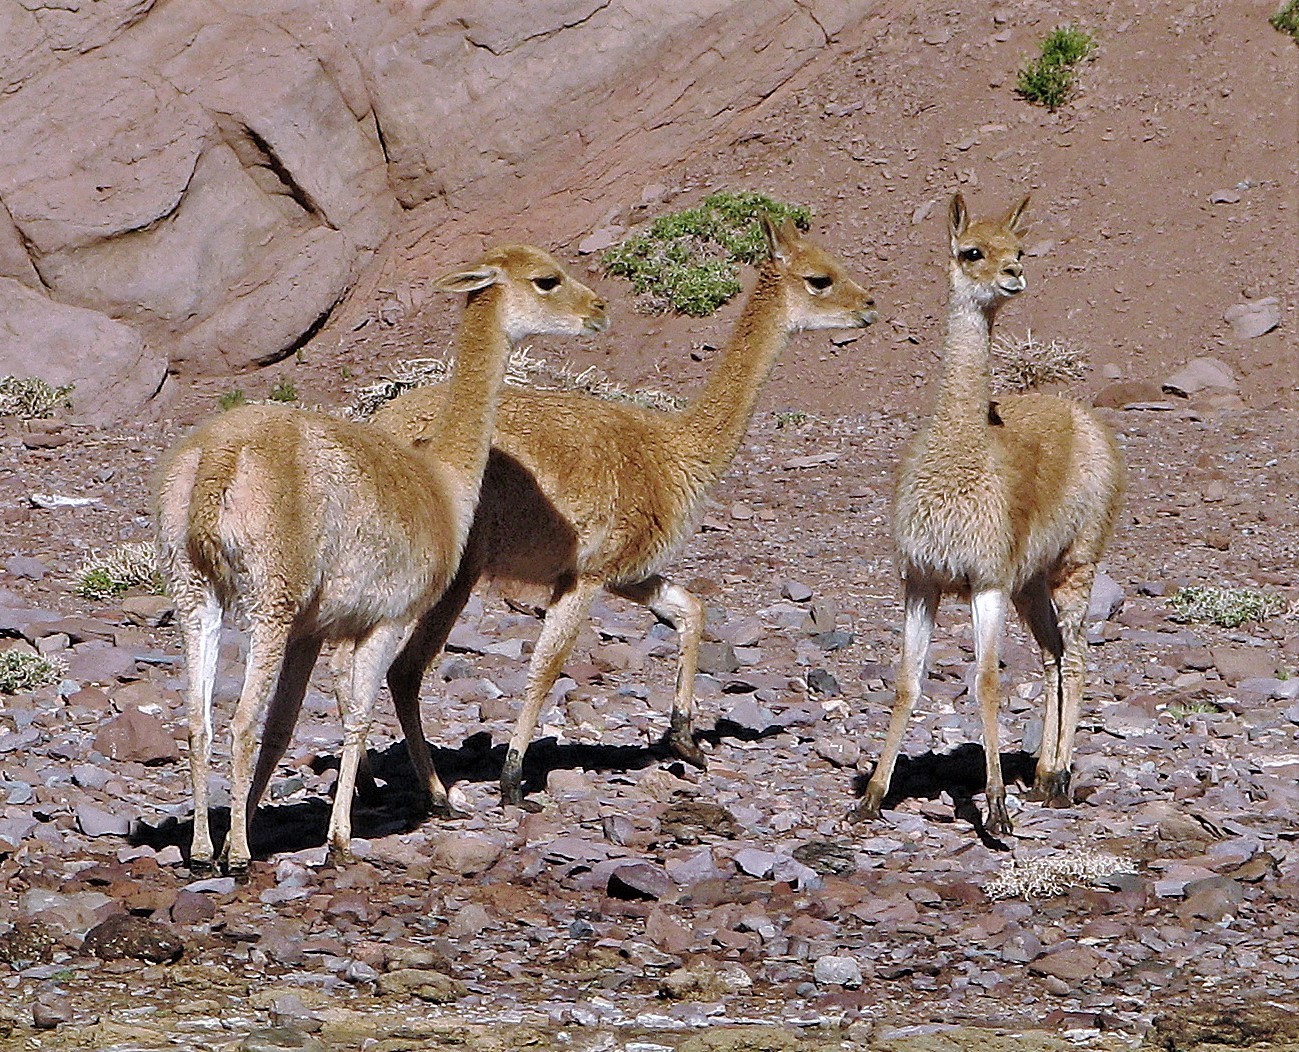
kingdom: Animalia
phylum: Chordata
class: Mammalia
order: Artiodactyla
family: Camelidae
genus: Vicugna
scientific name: Vicugna vicugna
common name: Vicugna
